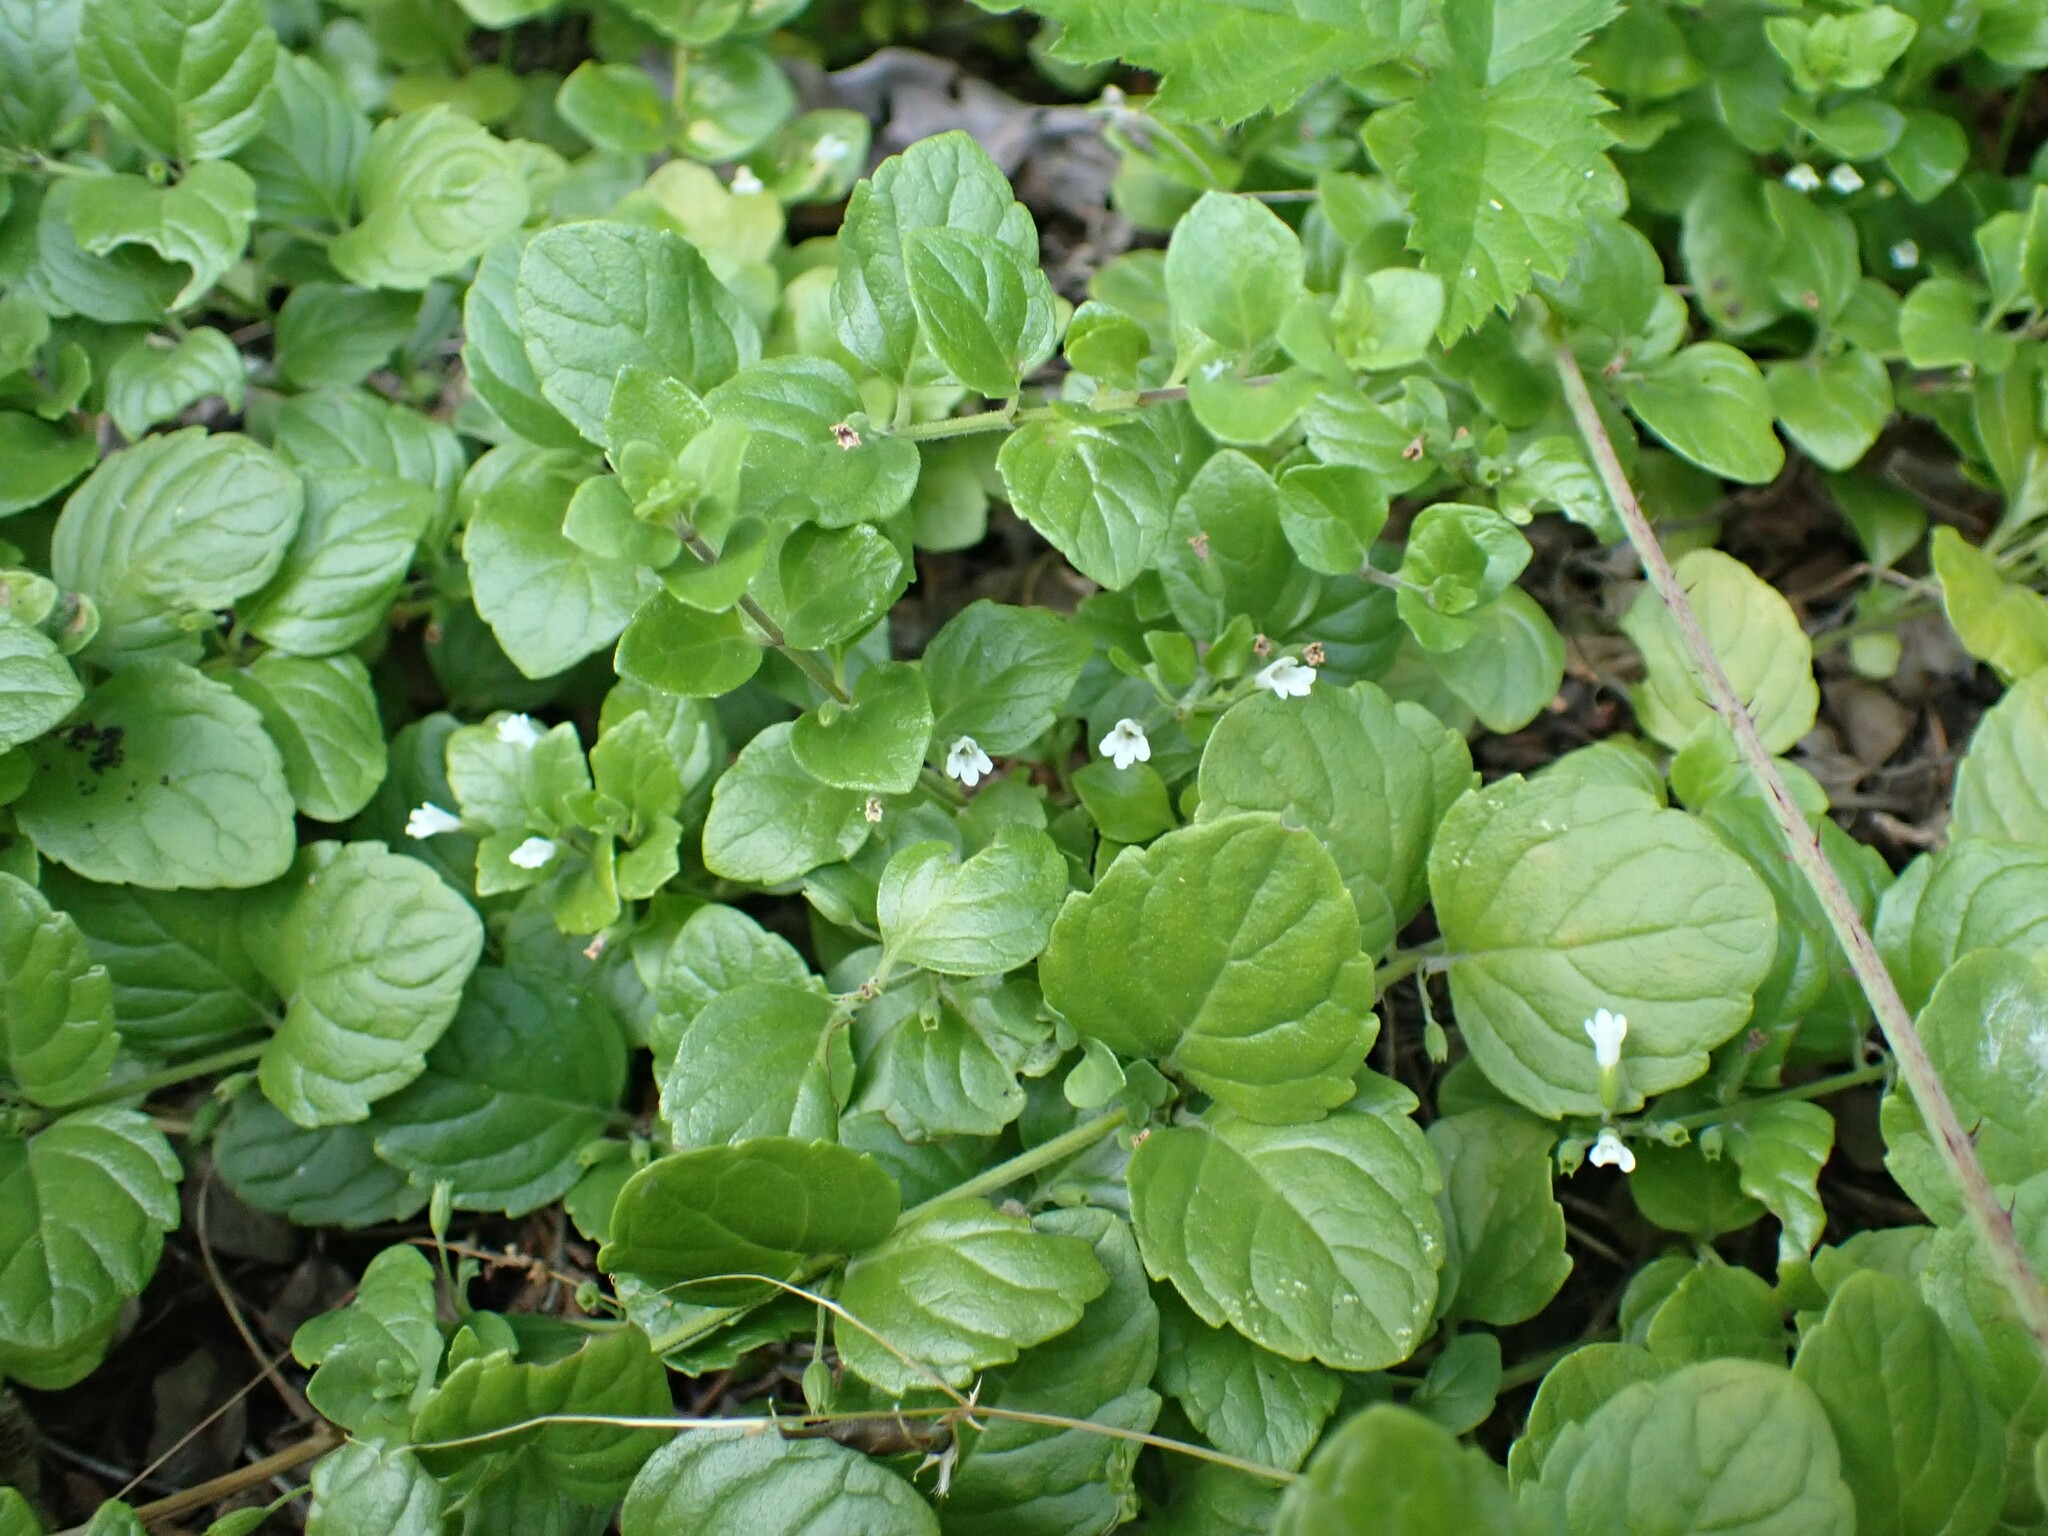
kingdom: Plantae
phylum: Tracheophyta
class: Magnoliopsida
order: Lamiales
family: Lamiaceae
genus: Micromeria
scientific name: Micromeria douglasii
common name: Yerba buena
